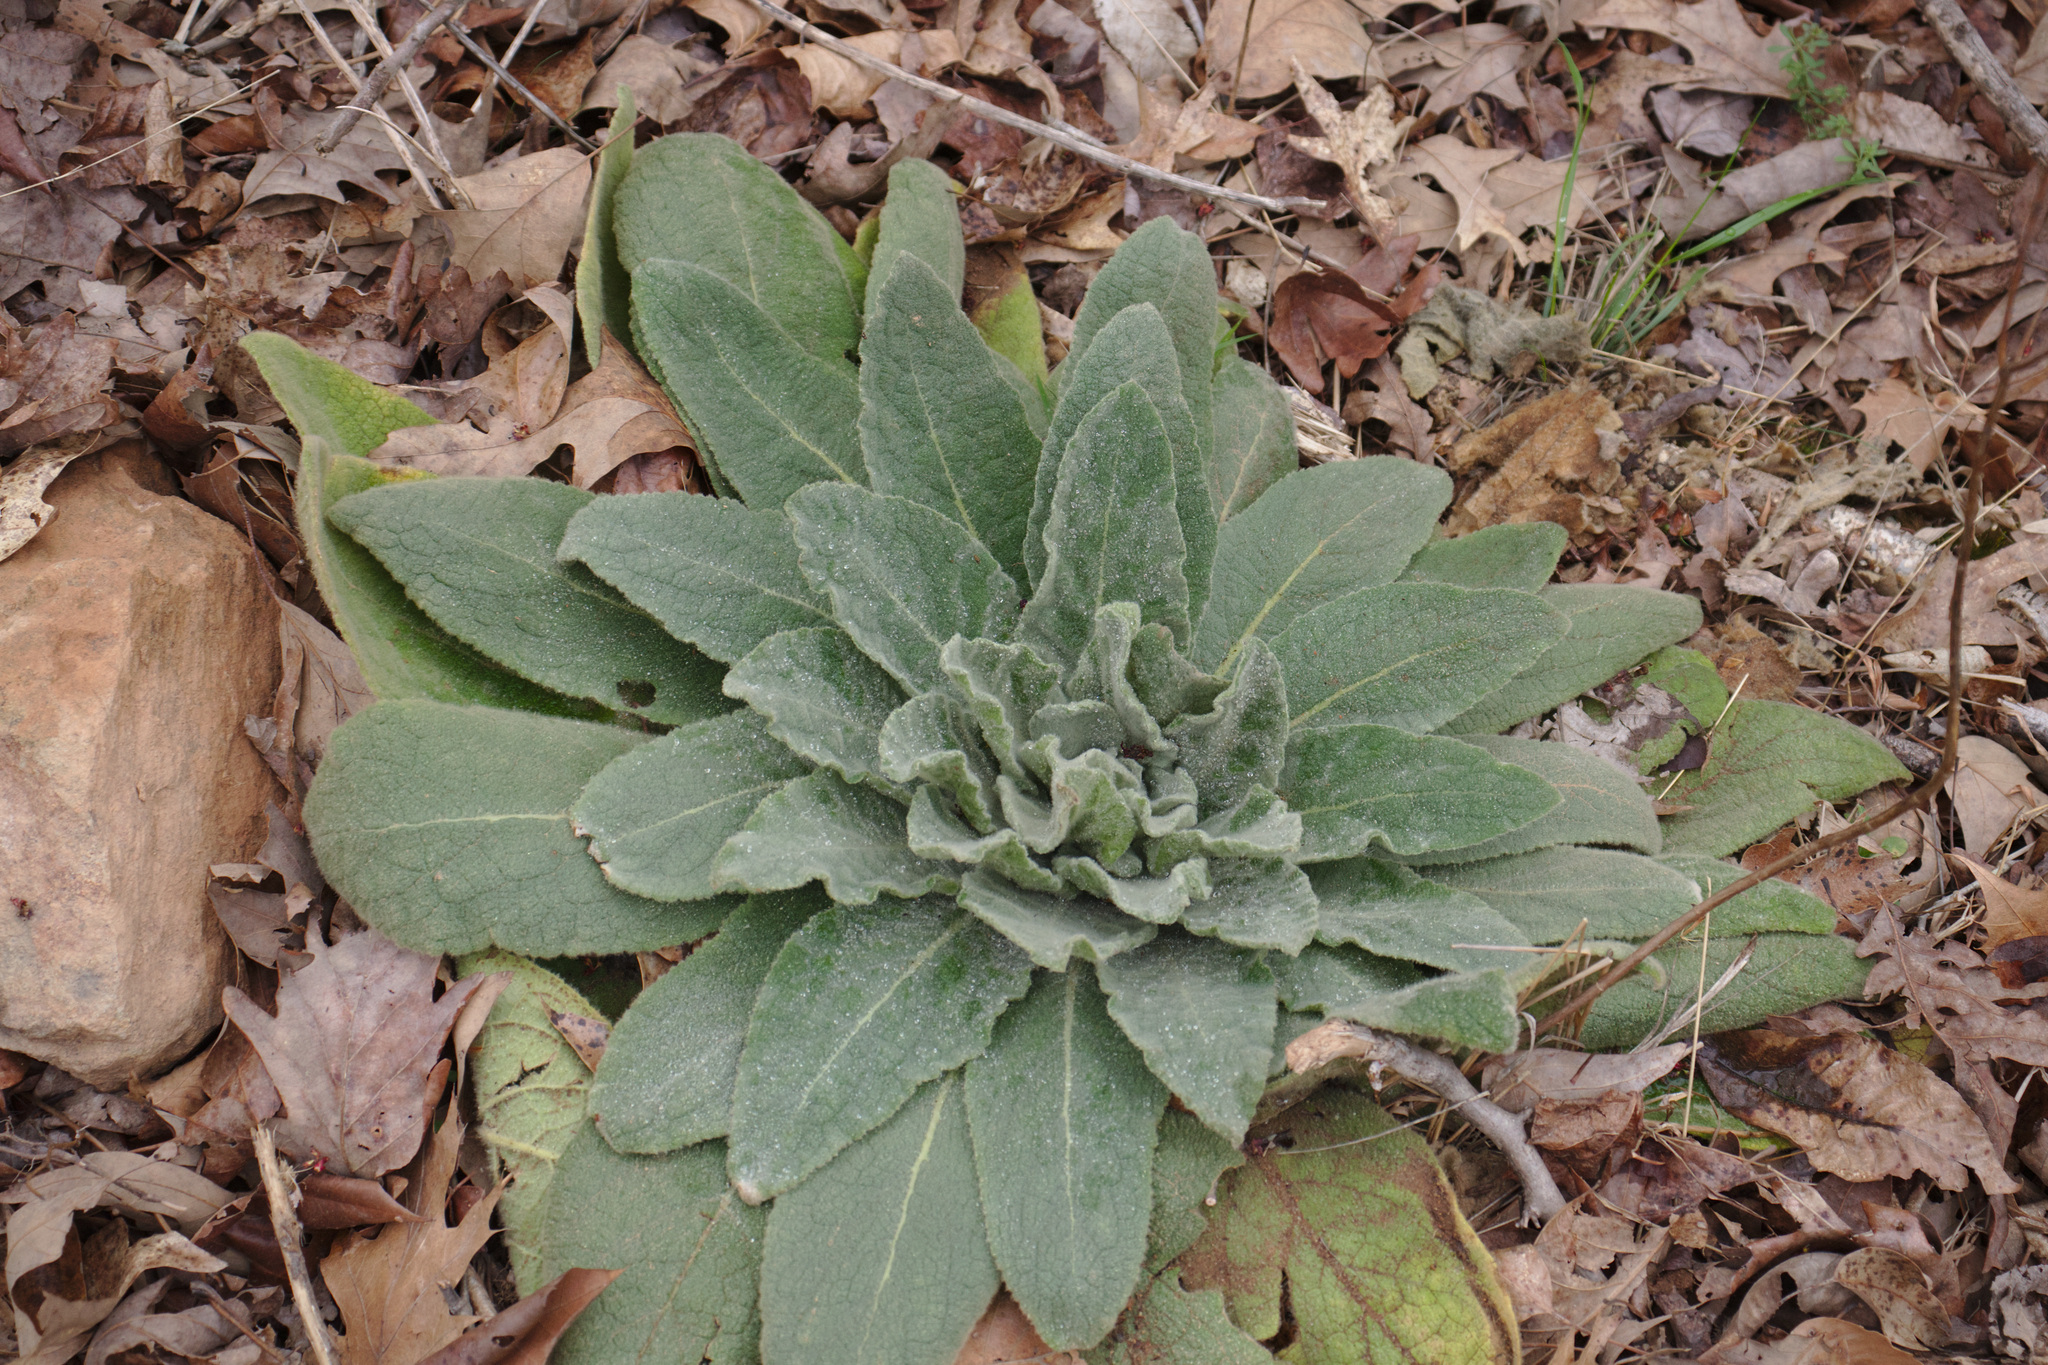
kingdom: Plantae
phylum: Tracheophyta
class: Magnoliopsida
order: Lamiales
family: Scrophulariaceae
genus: Verbascum
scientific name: Verbascum thapsus
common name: Common mullein
